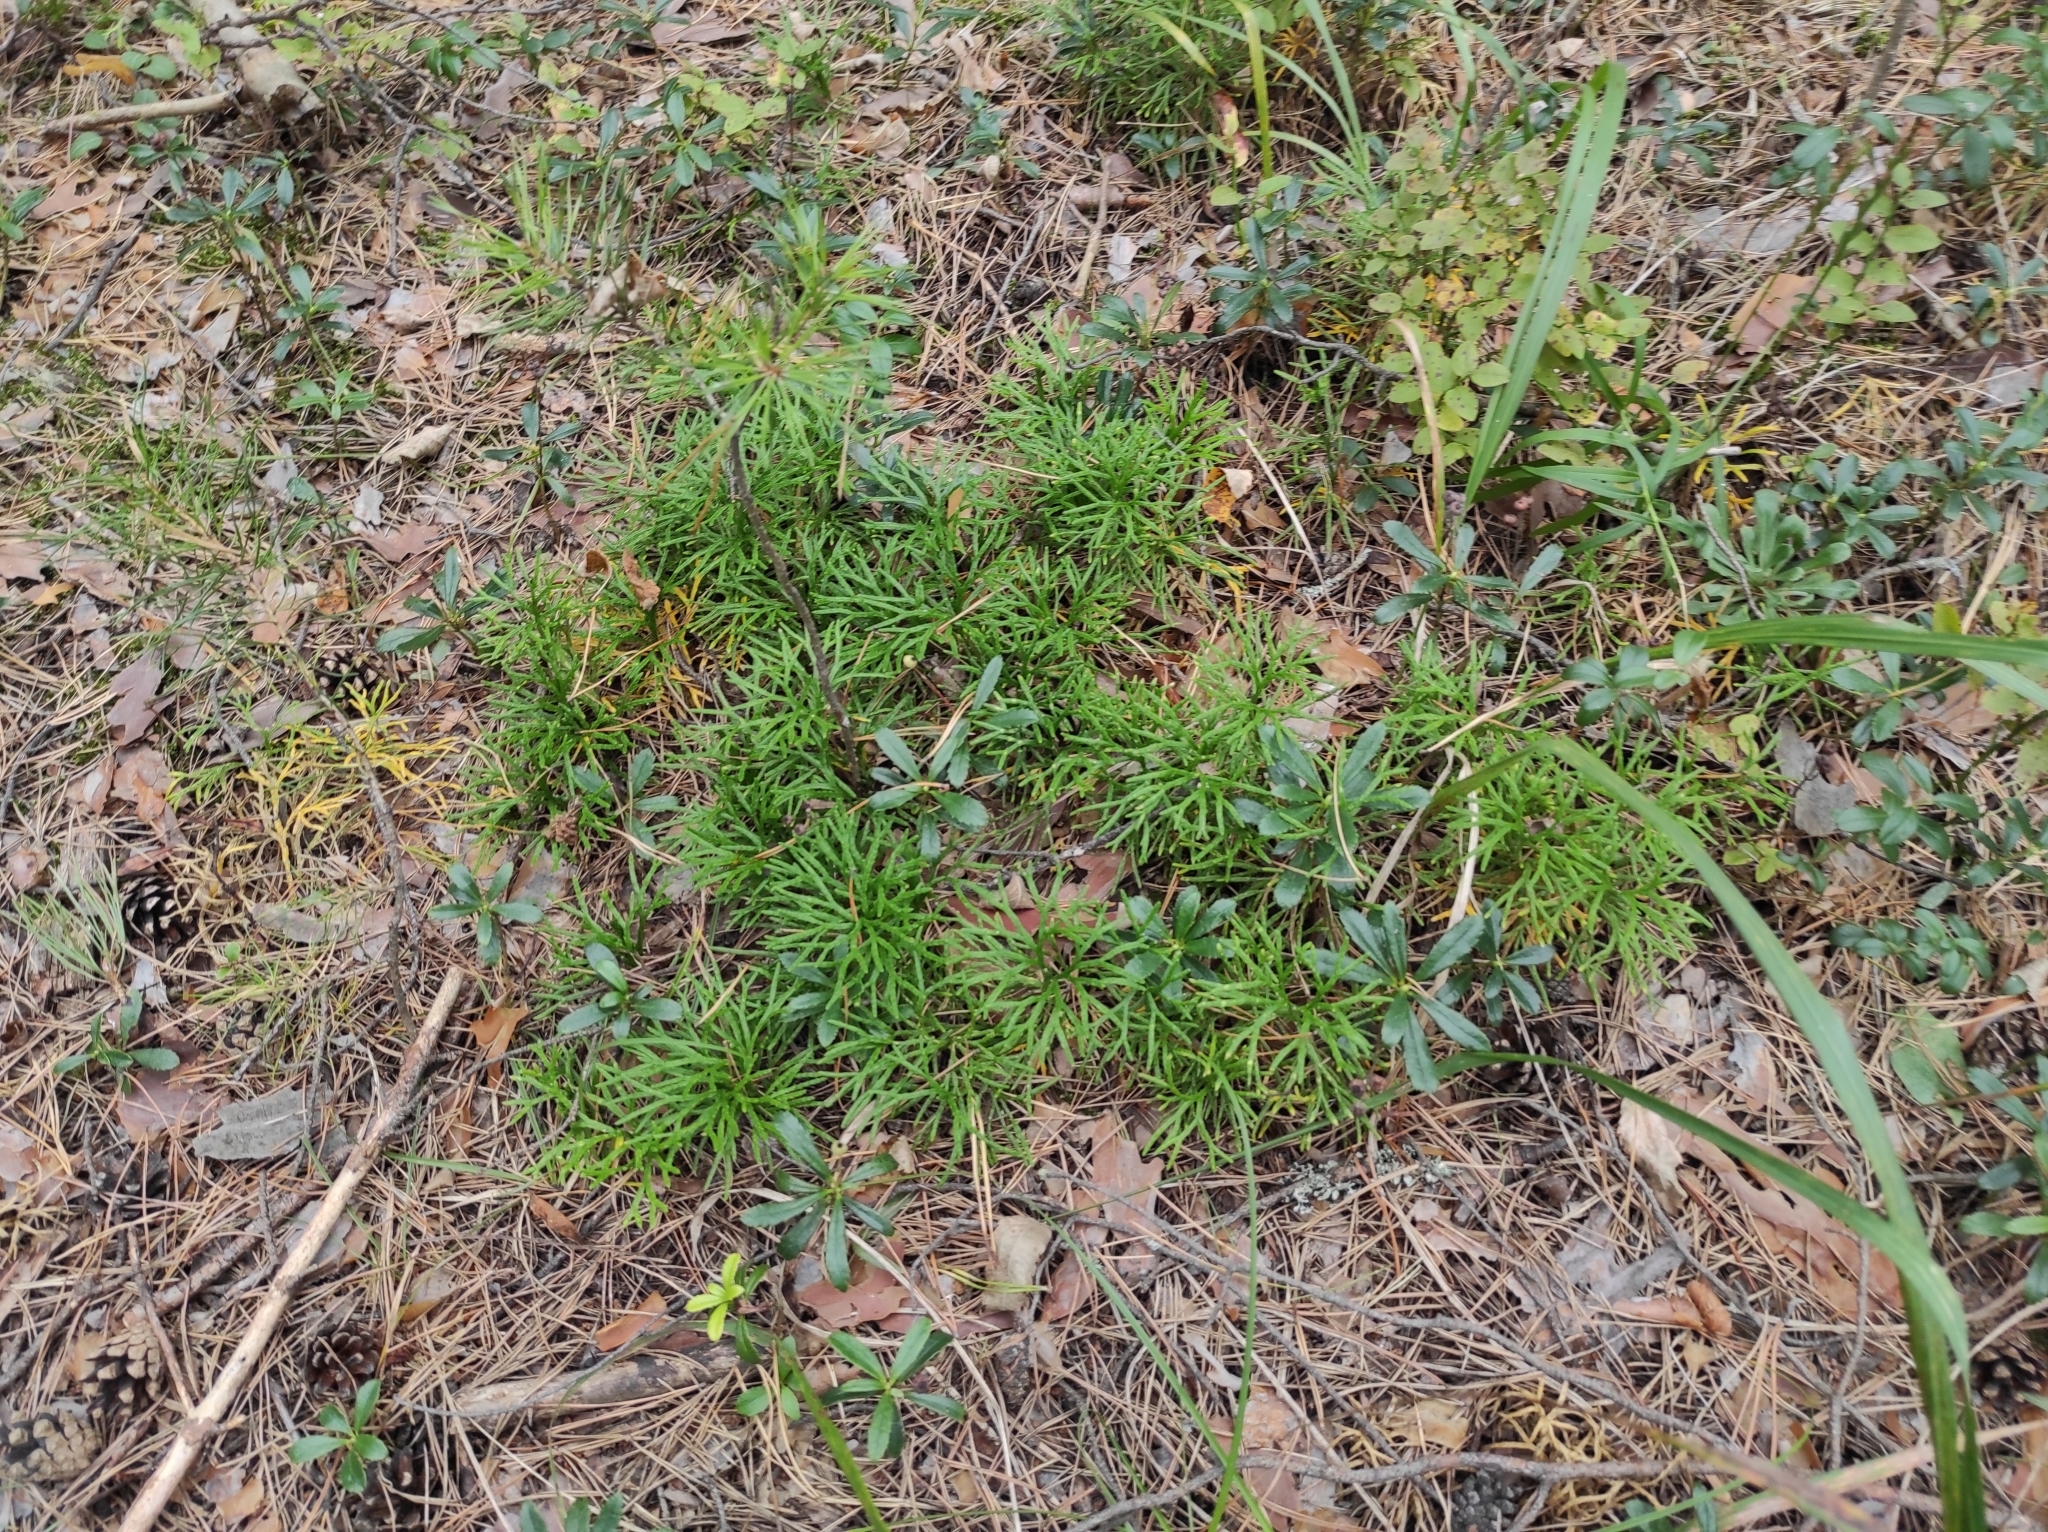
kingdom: Plantae
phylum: Tracheophyta
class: Lycopodiopsida
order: Lycopodiales
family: Lycopodiaceae
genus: Diphasiastrum
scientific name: Diphasiastrum complanatum
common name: Northern running-pine
